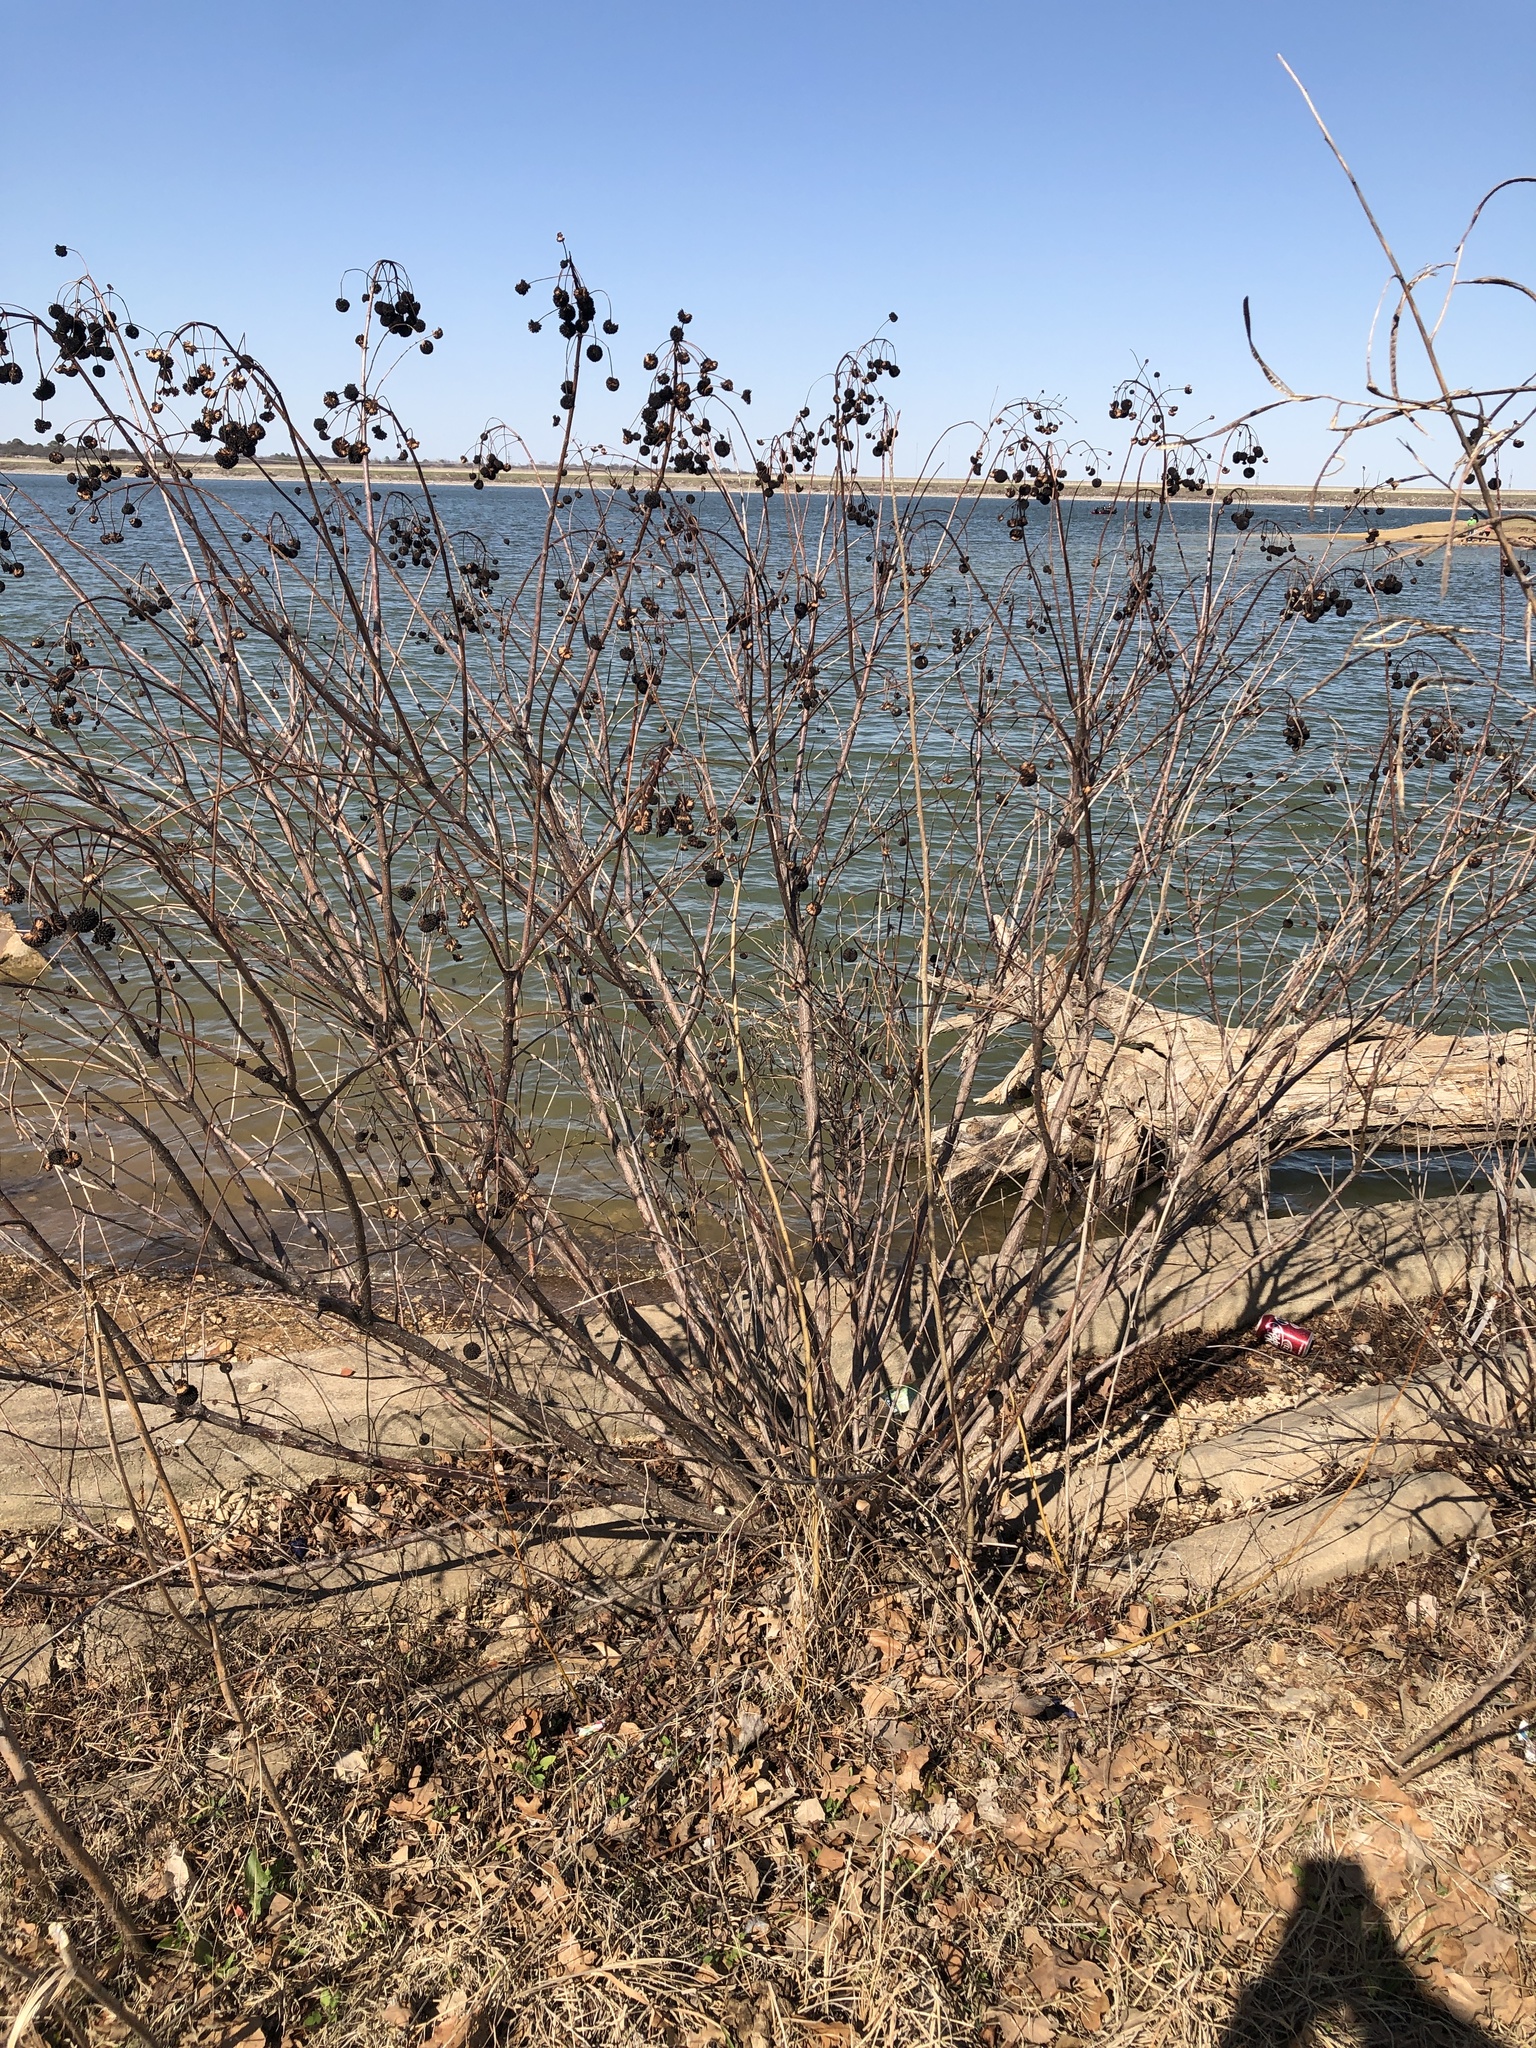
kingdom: Plantae
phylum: Tracheophyta
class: Magnoliopsida
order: Gentianales
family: Rubiaceae
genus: Cephalanthus
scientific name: Cephalanthus occidentalis
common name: Button-willow
